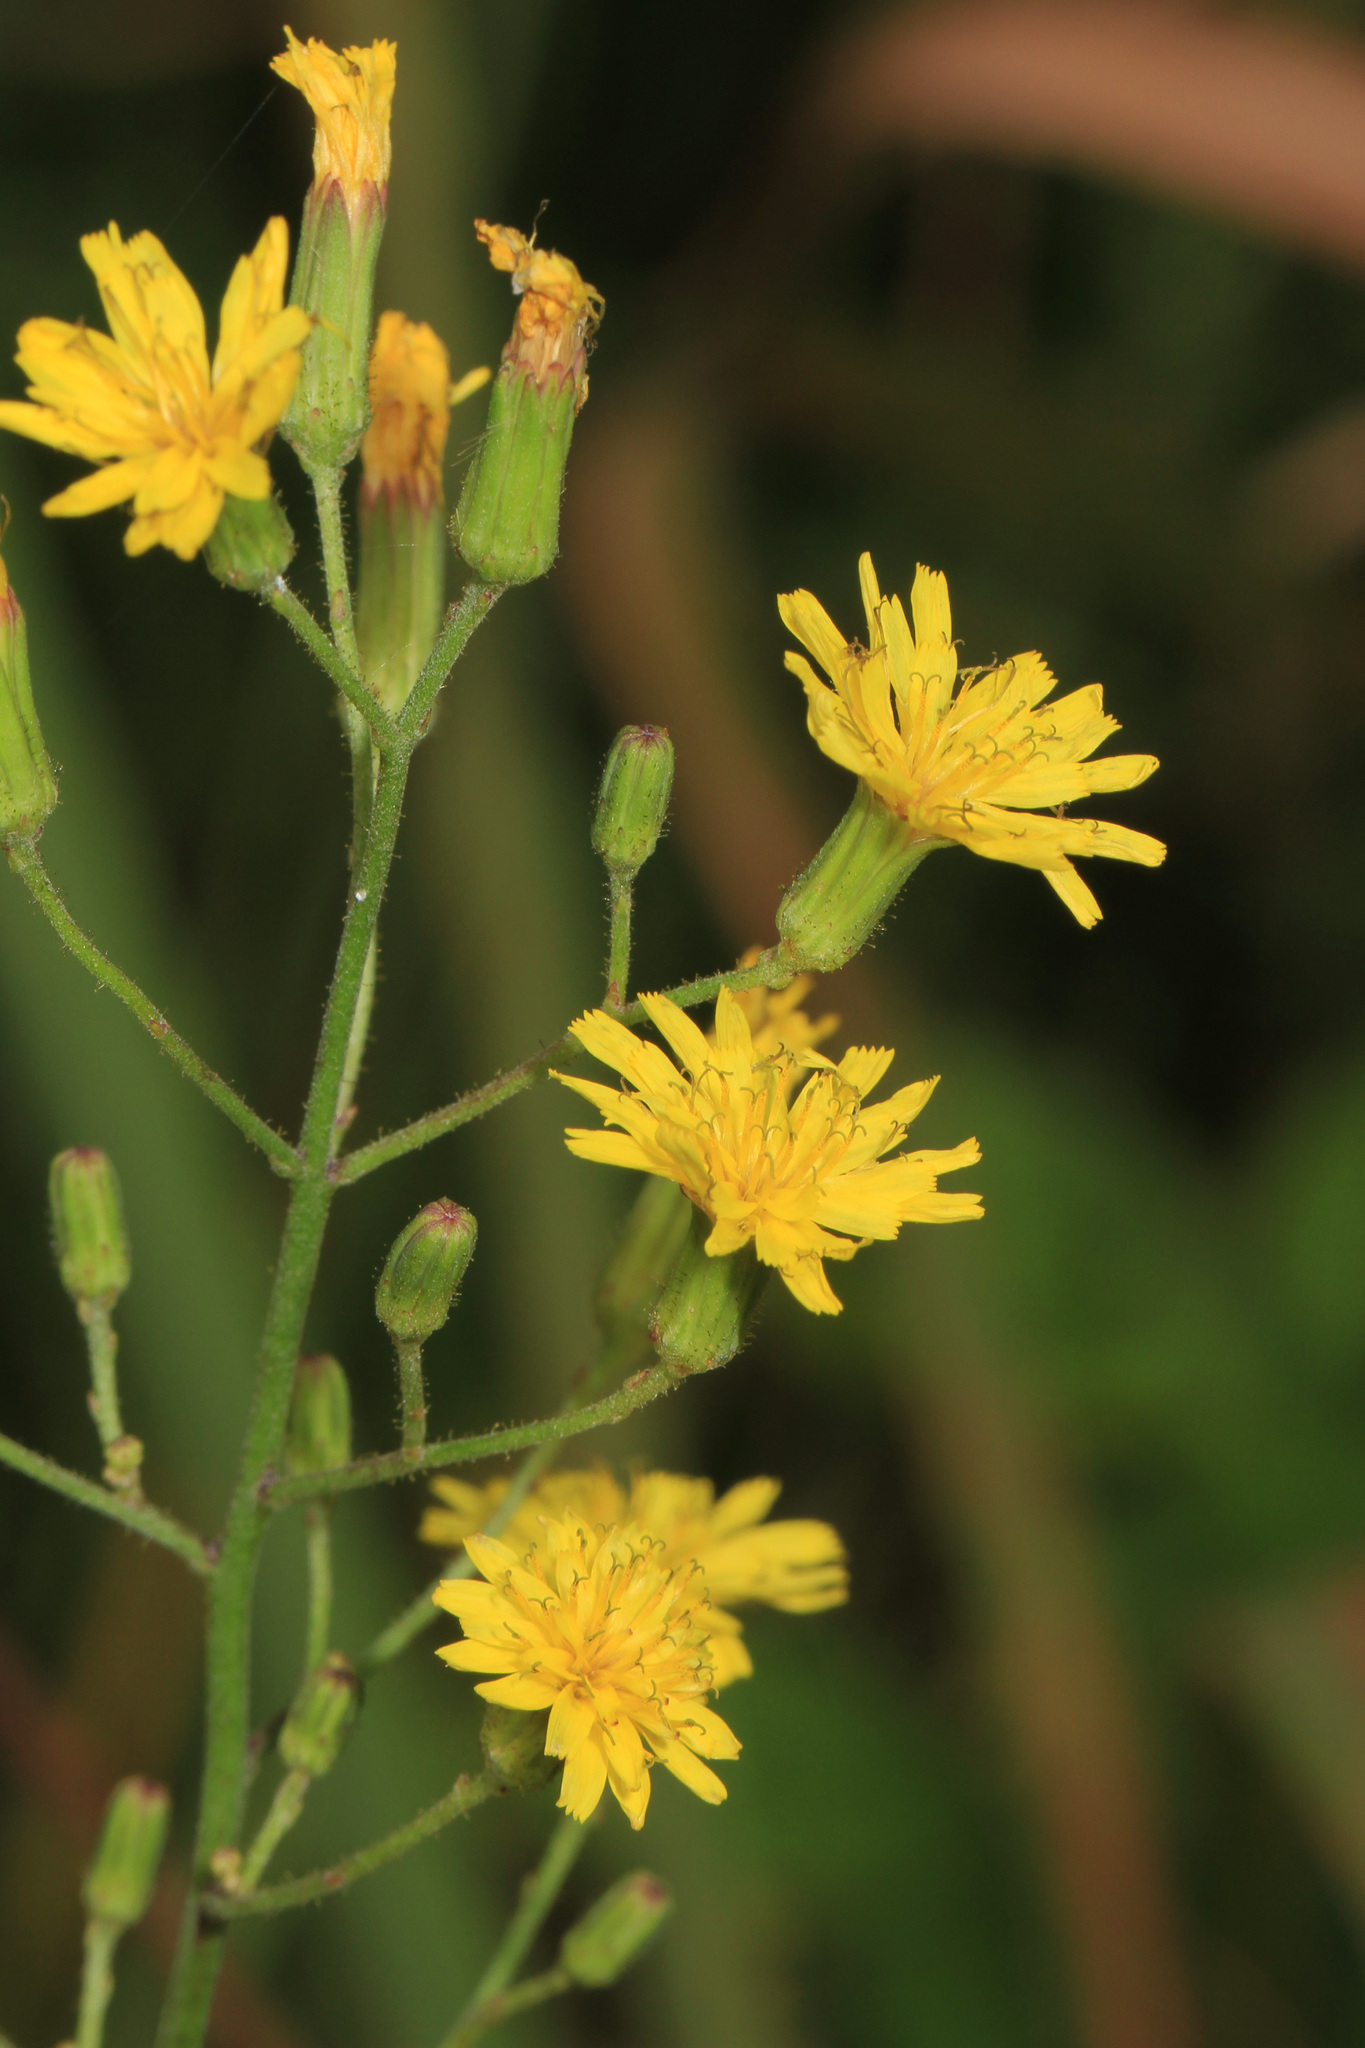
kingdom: Plantae
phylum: Tracheophyta
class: Magnoliopsida
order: Asterales
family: Asteraceae
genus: Hieracium
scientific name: Hieracium scabrum
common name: Rough hawkweed
